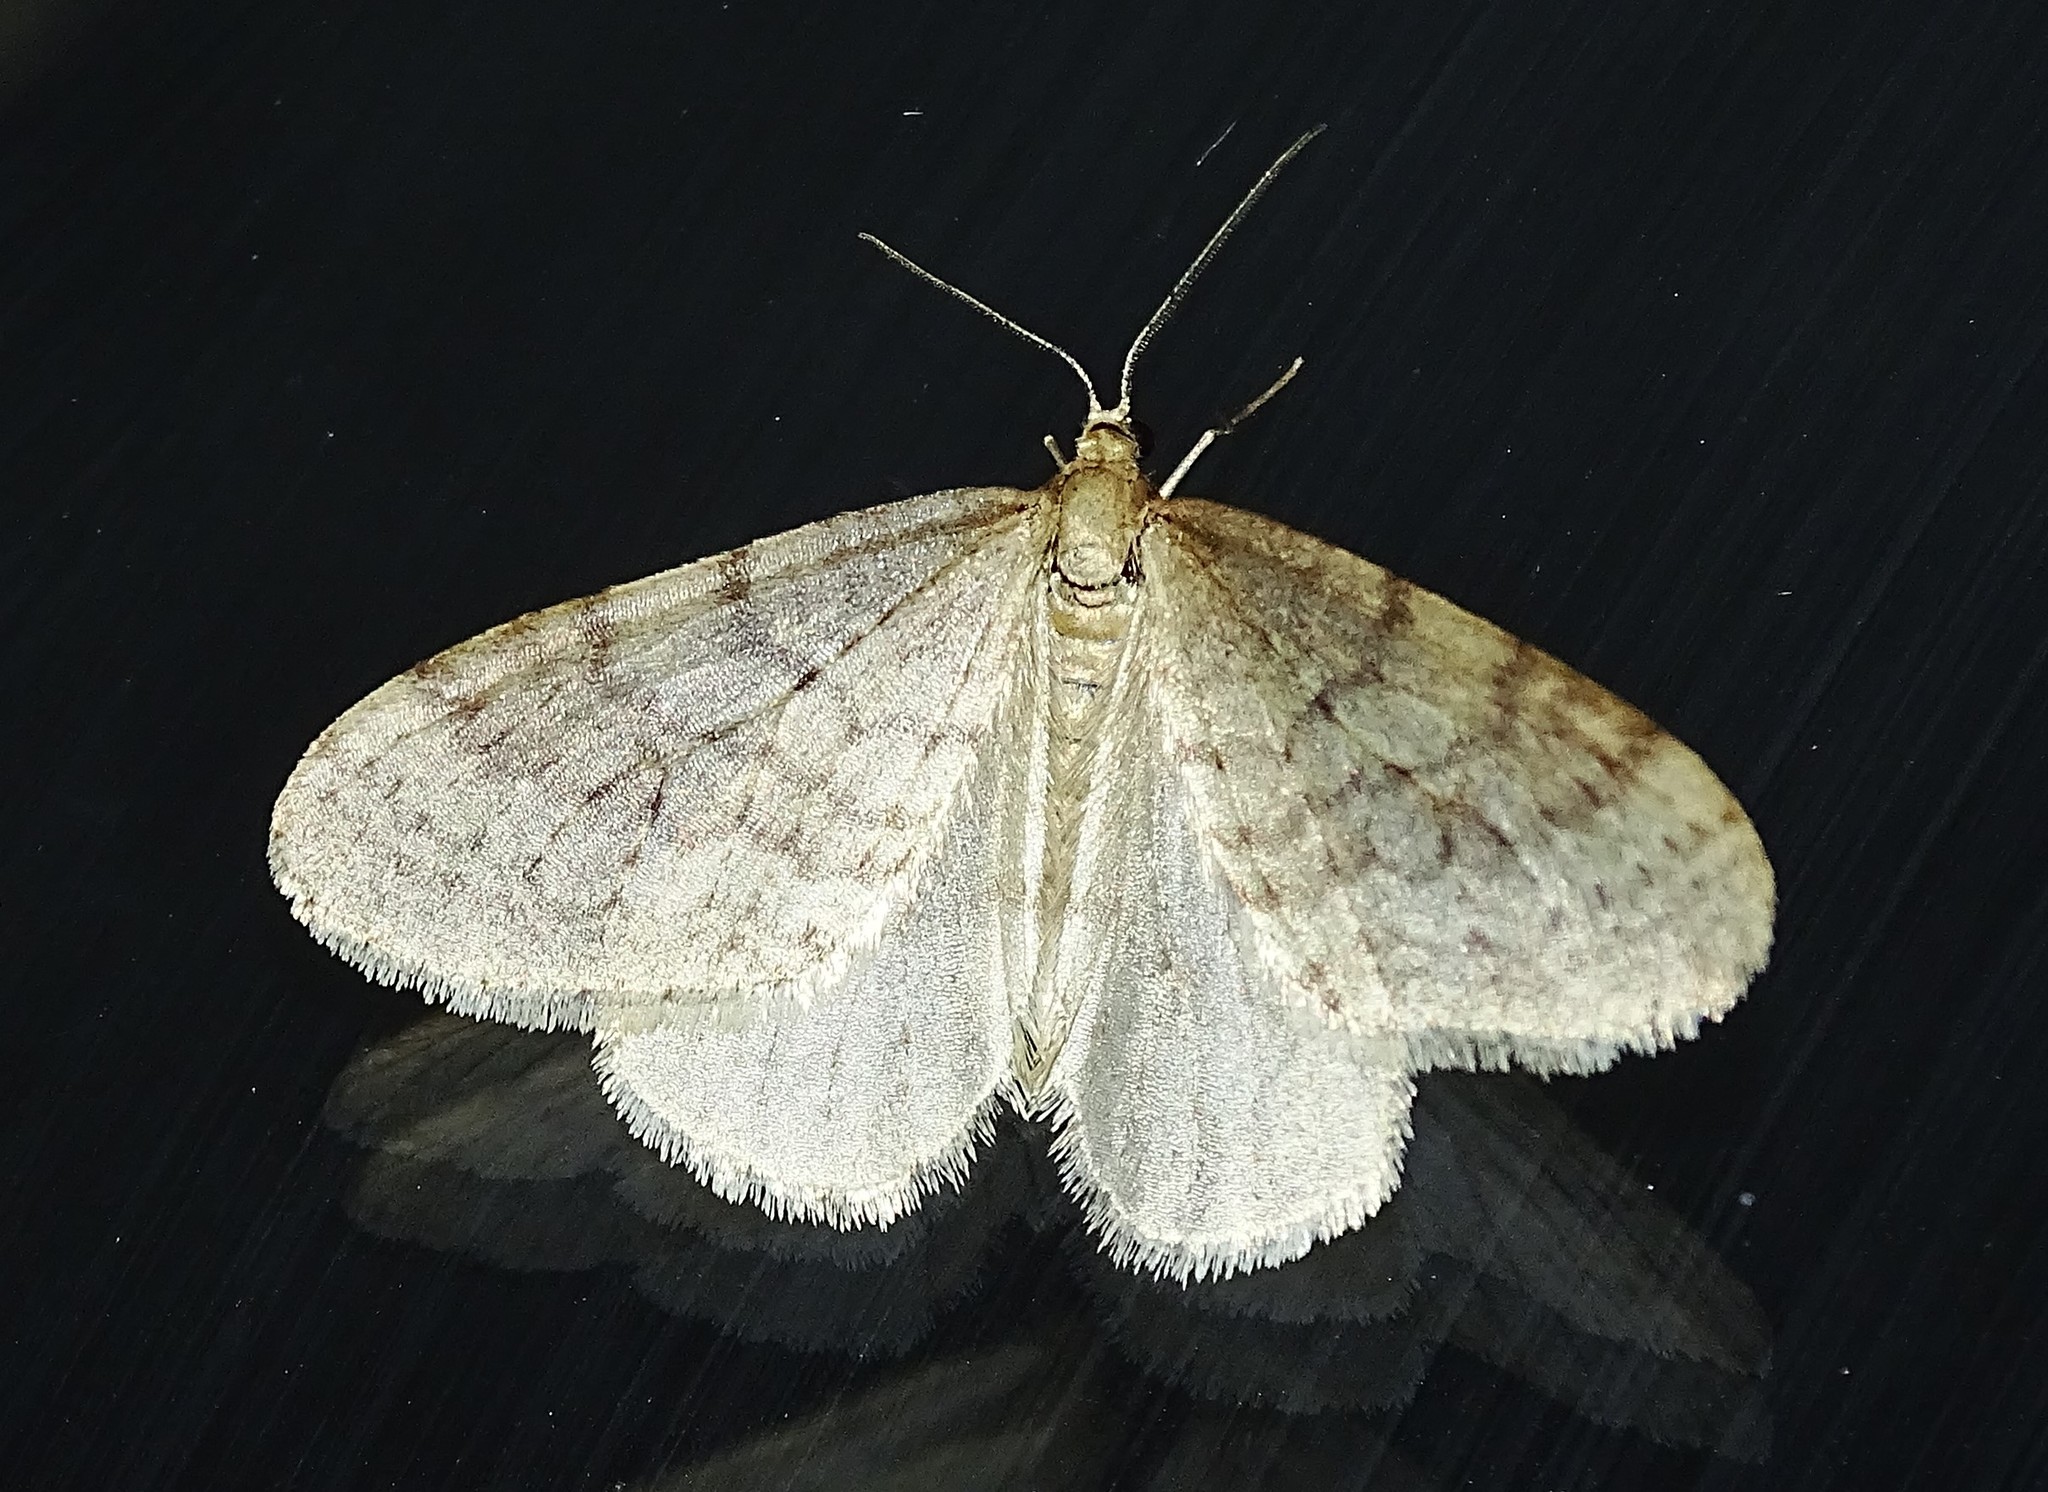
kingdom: Animalia
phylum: Arthropoda
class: Insecta
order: Lepidoptera
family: Geometridae
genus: Operophtera
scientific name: Operophtera bruceata
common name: Bruce spanworm
